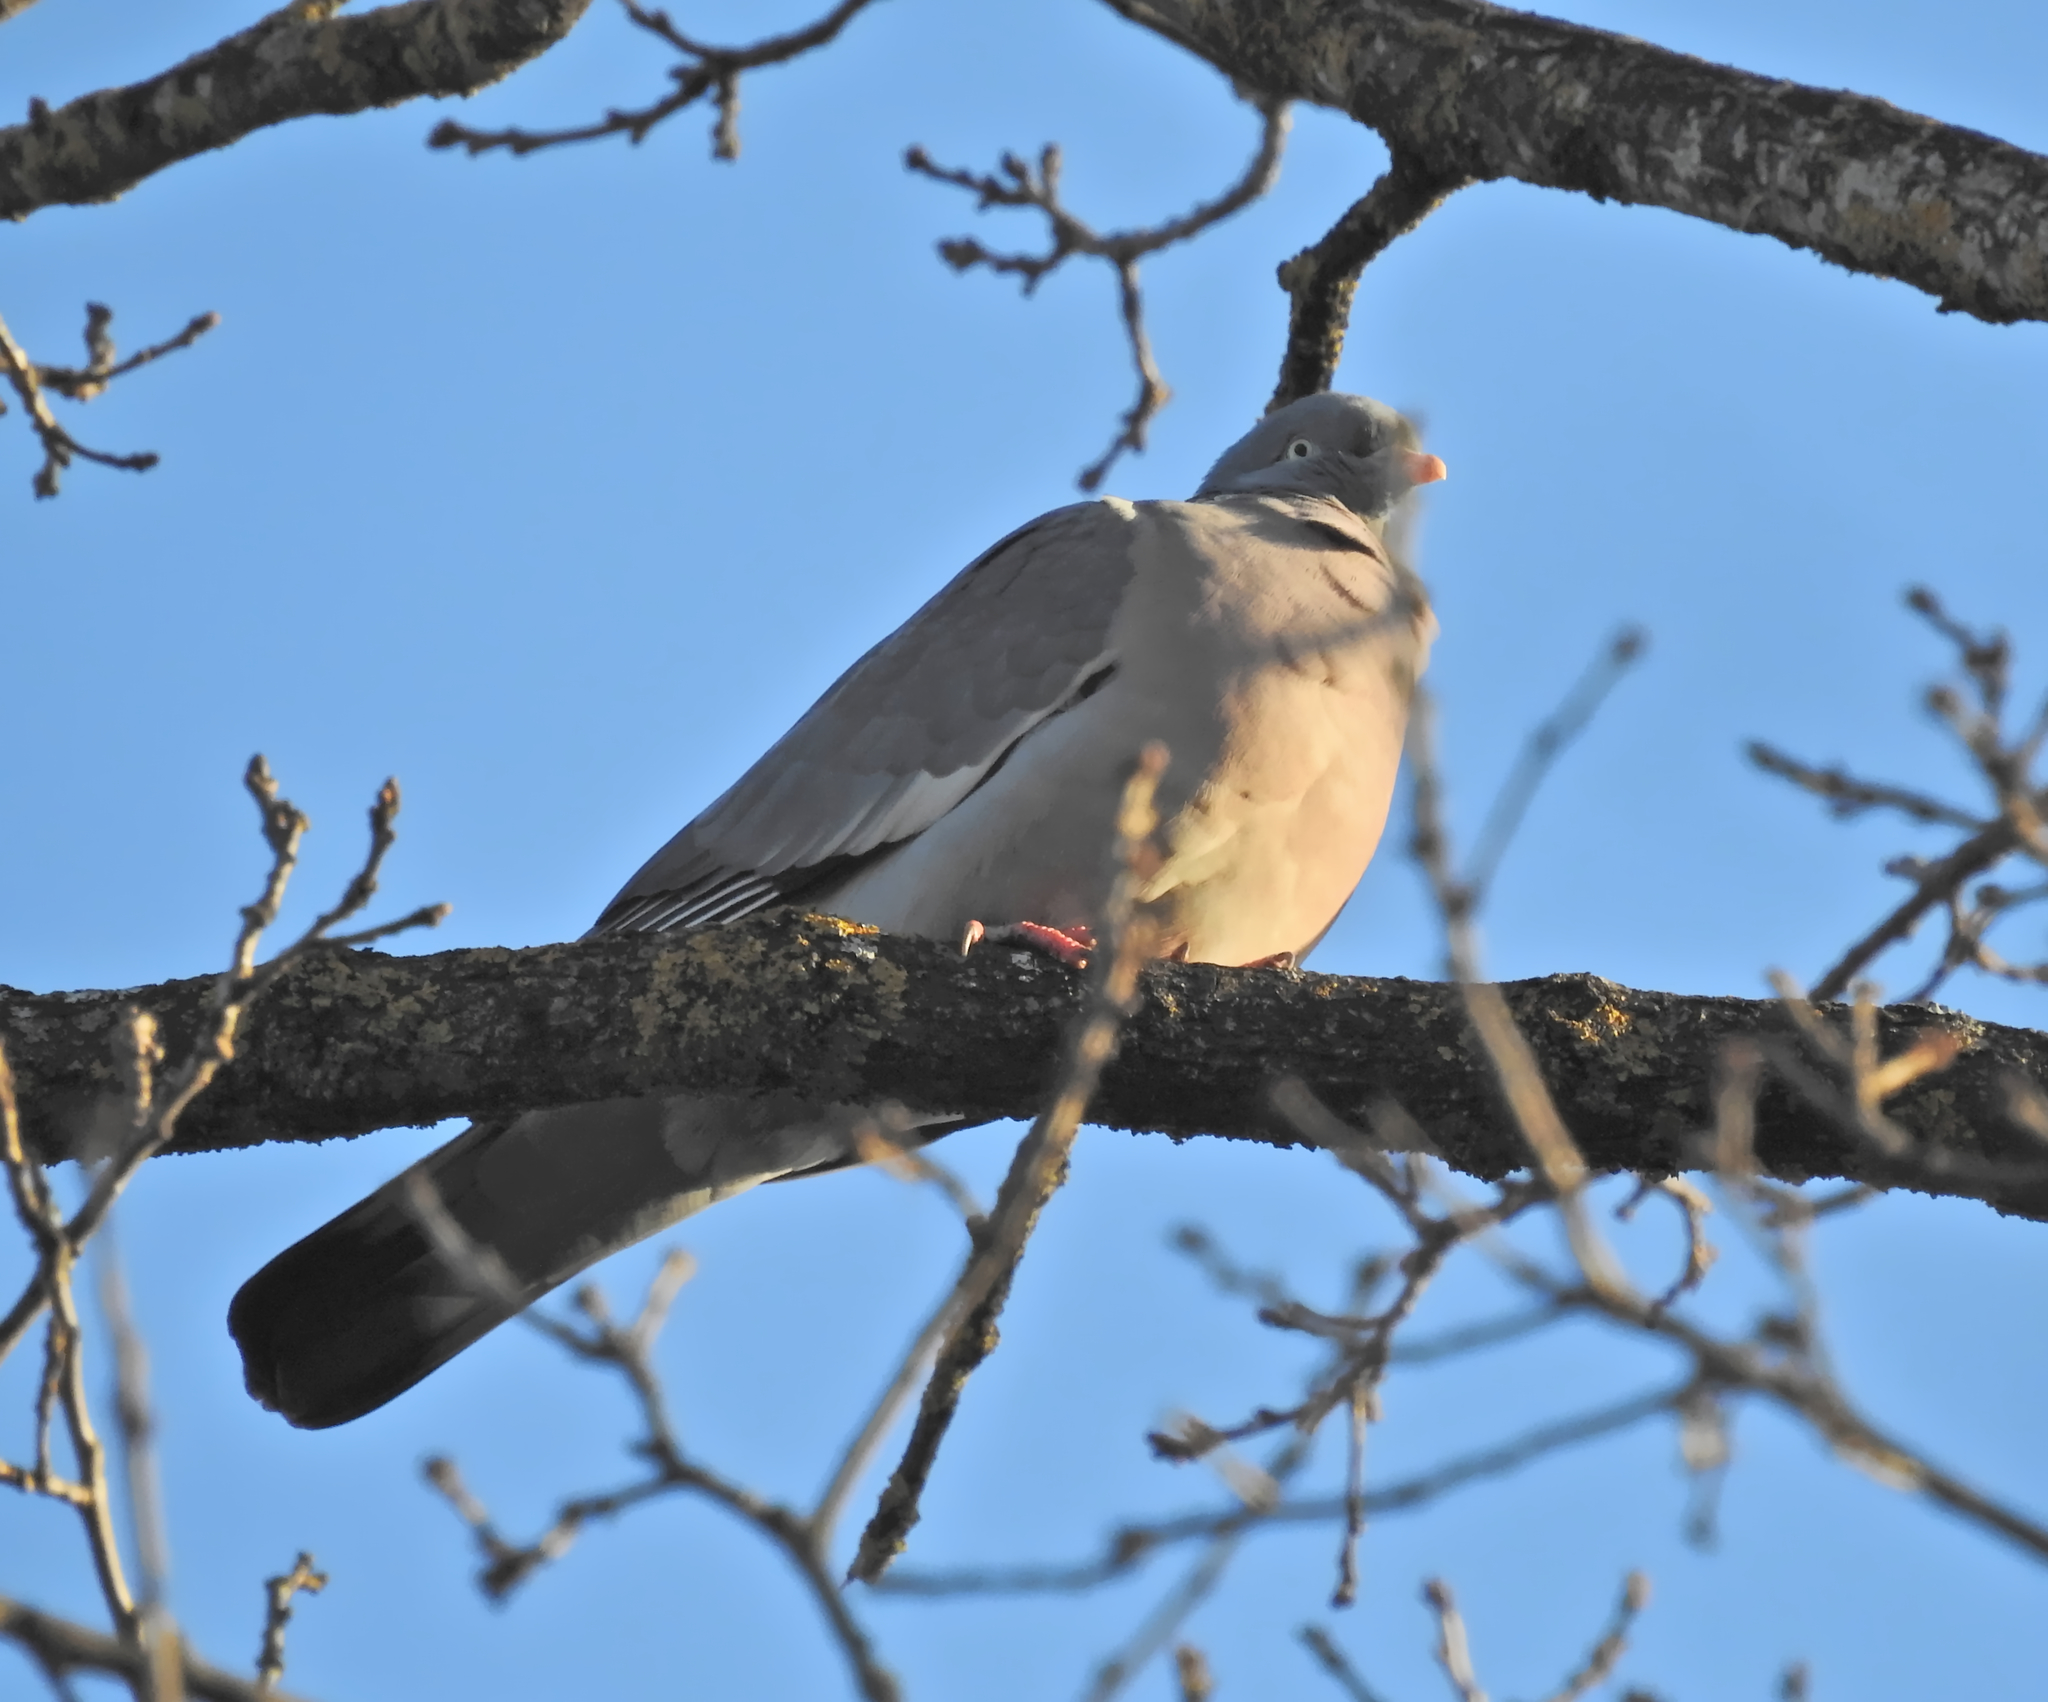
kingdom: Animalia
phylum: Chordata
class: Aves
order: Columbiformes
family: Columbidae
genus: Columba
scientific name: Columba palumbus
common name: Common wood pigeon
